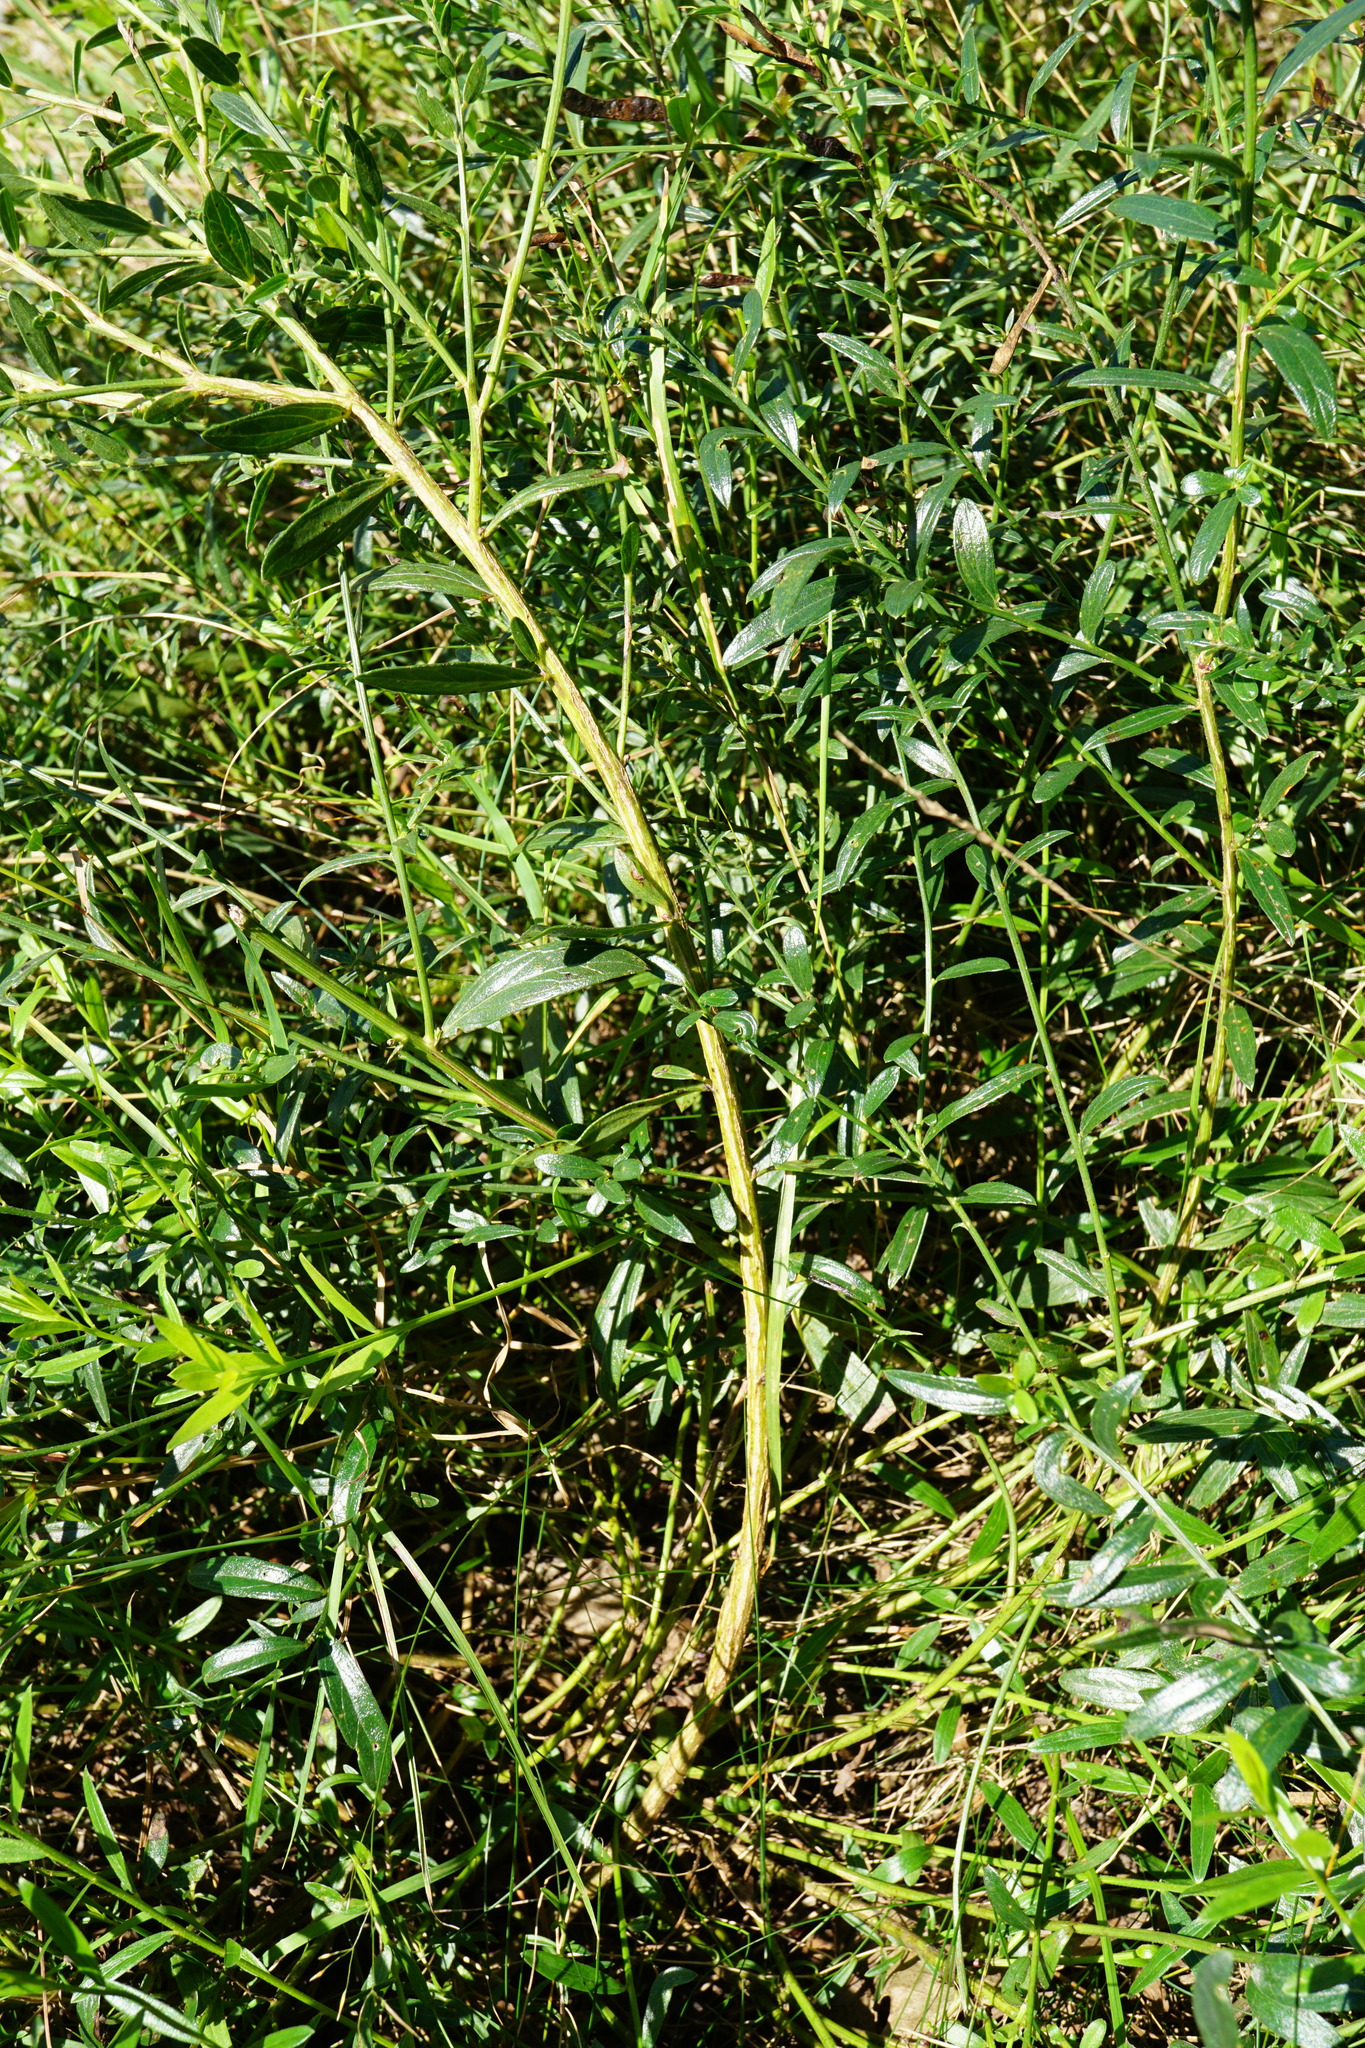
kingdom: Plantae
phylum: Tracheophyta
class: Magnoliopsida
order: Fabales
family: Fabaceae
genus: Genista
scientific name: Genista tinctoria
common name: Dyer's greenweed
